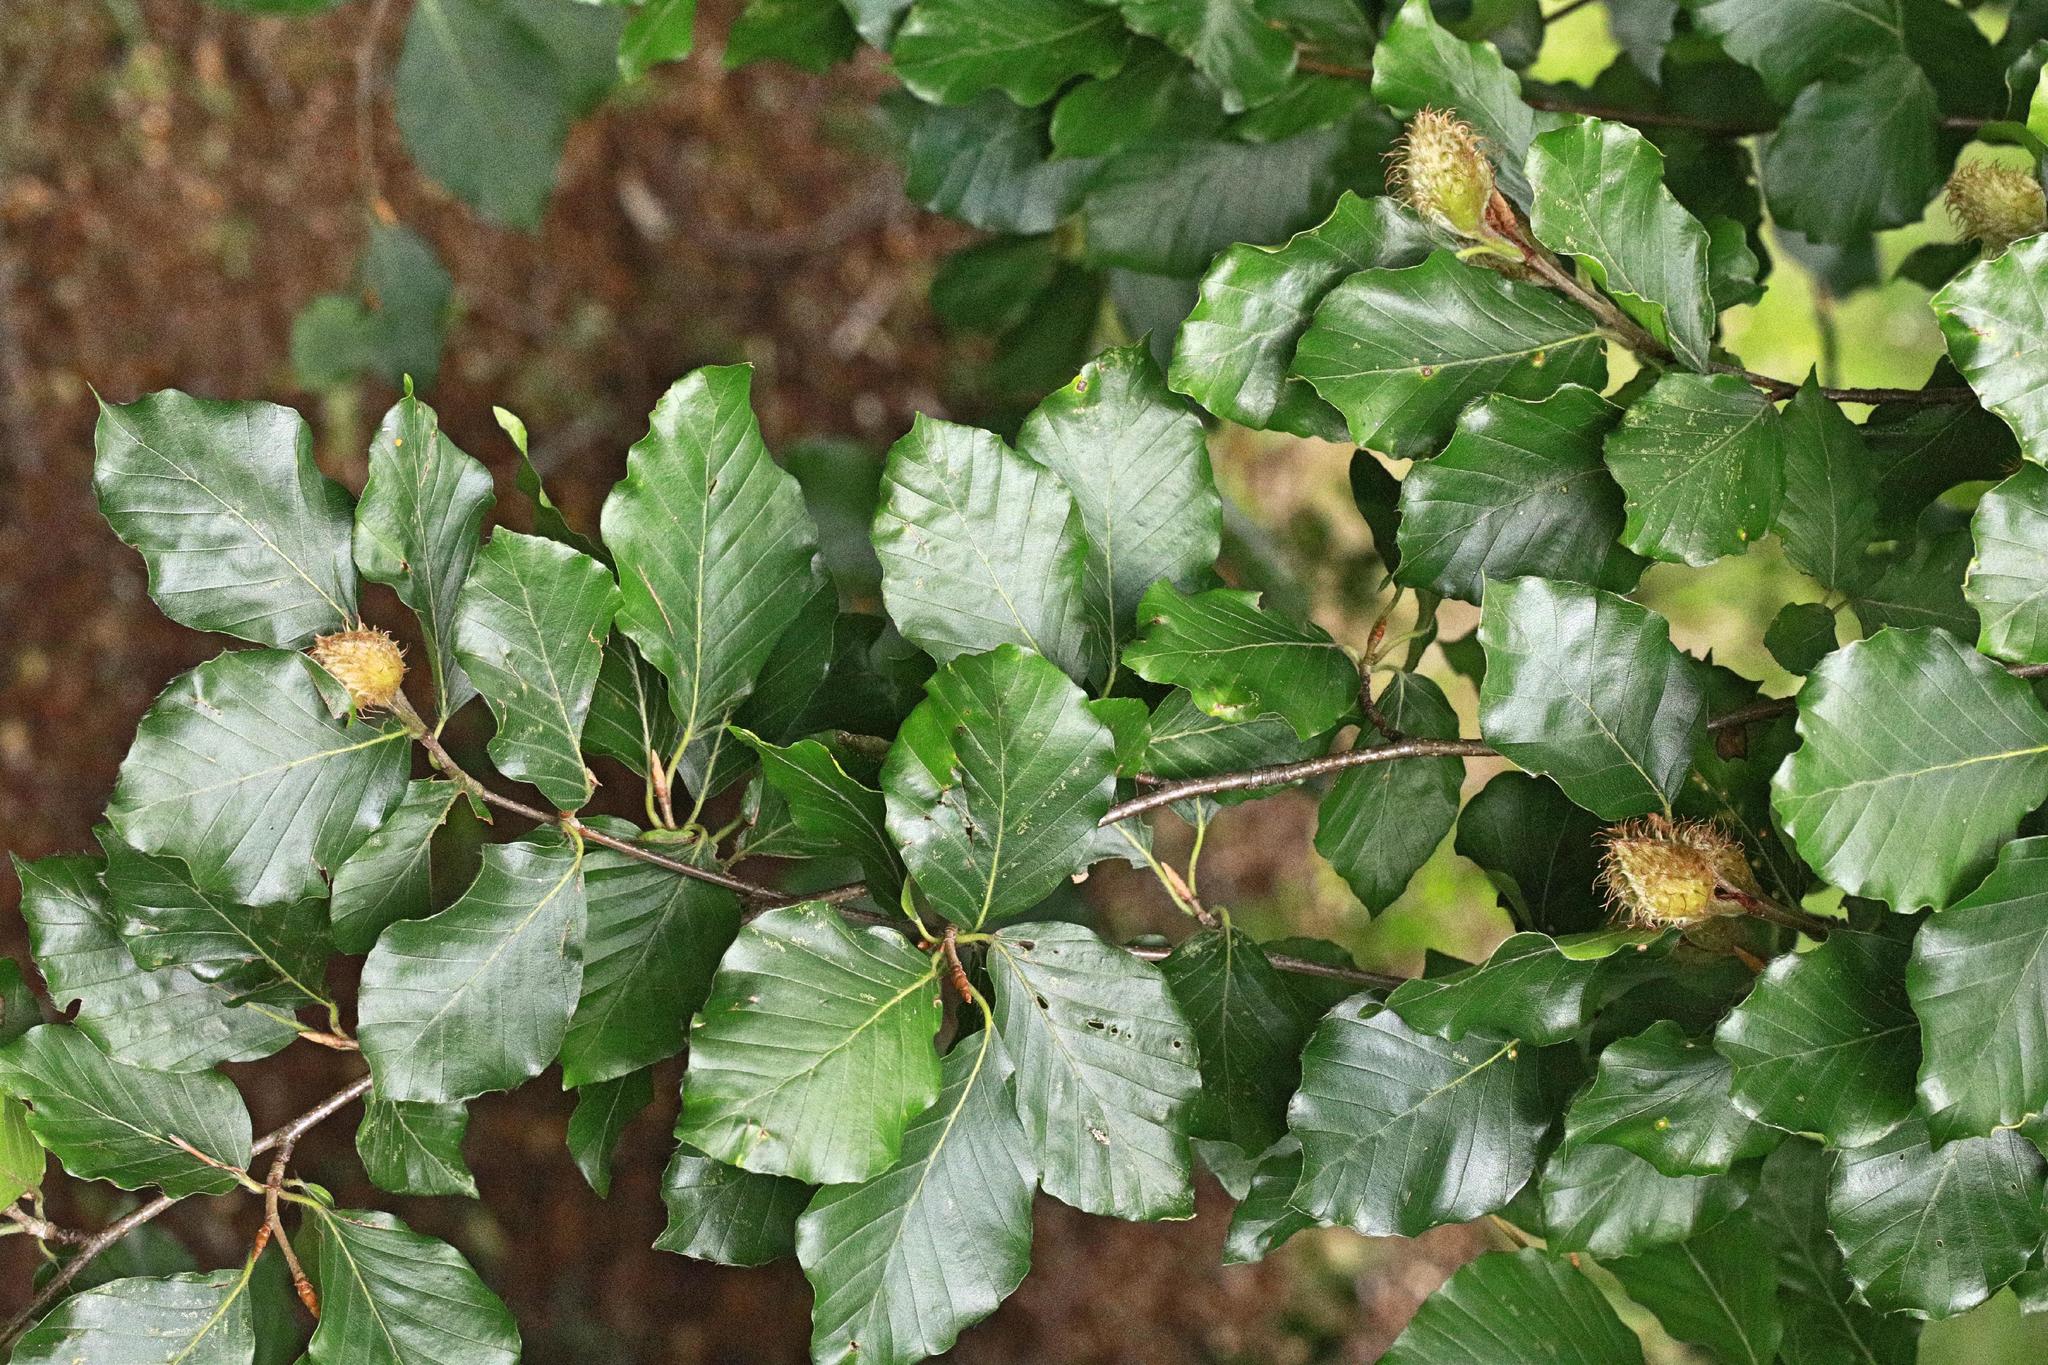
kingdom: Plantae
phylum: Tracheophyta
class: Magnoliopsida
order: Fagales
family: Fagaceae
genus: Fagus
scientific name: Fagus sylvatica
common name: Beech
